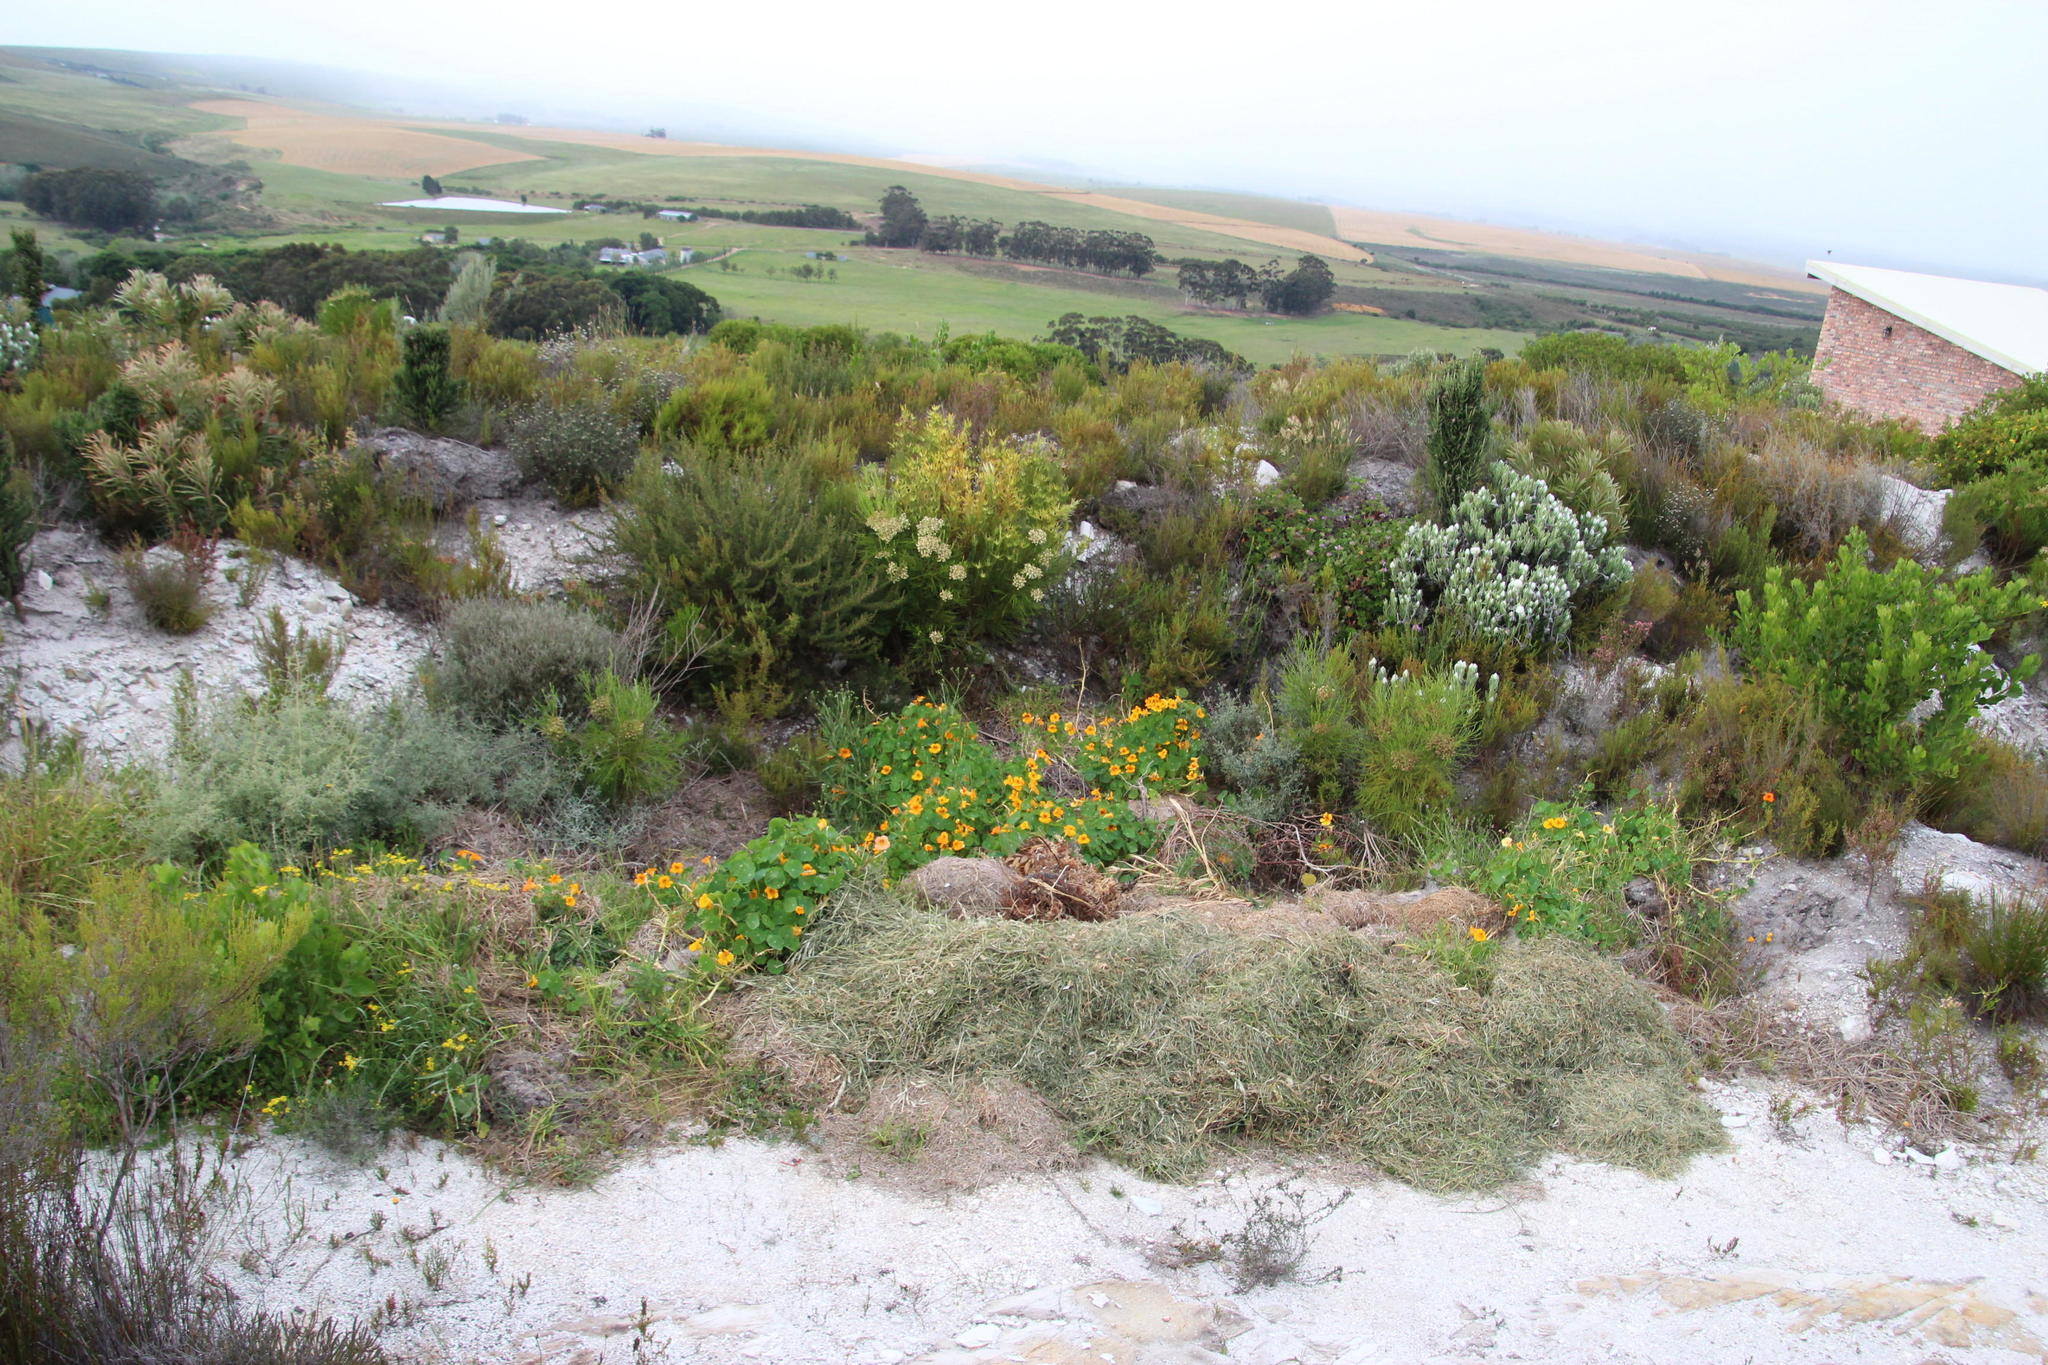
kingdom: Plantae
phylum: Tracheophyta
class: Magnoliopsida
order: Brassicales
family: Tropaeolaceae
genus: Tropaeolum
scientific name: Tropaeolum majus
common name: Nasturtium
